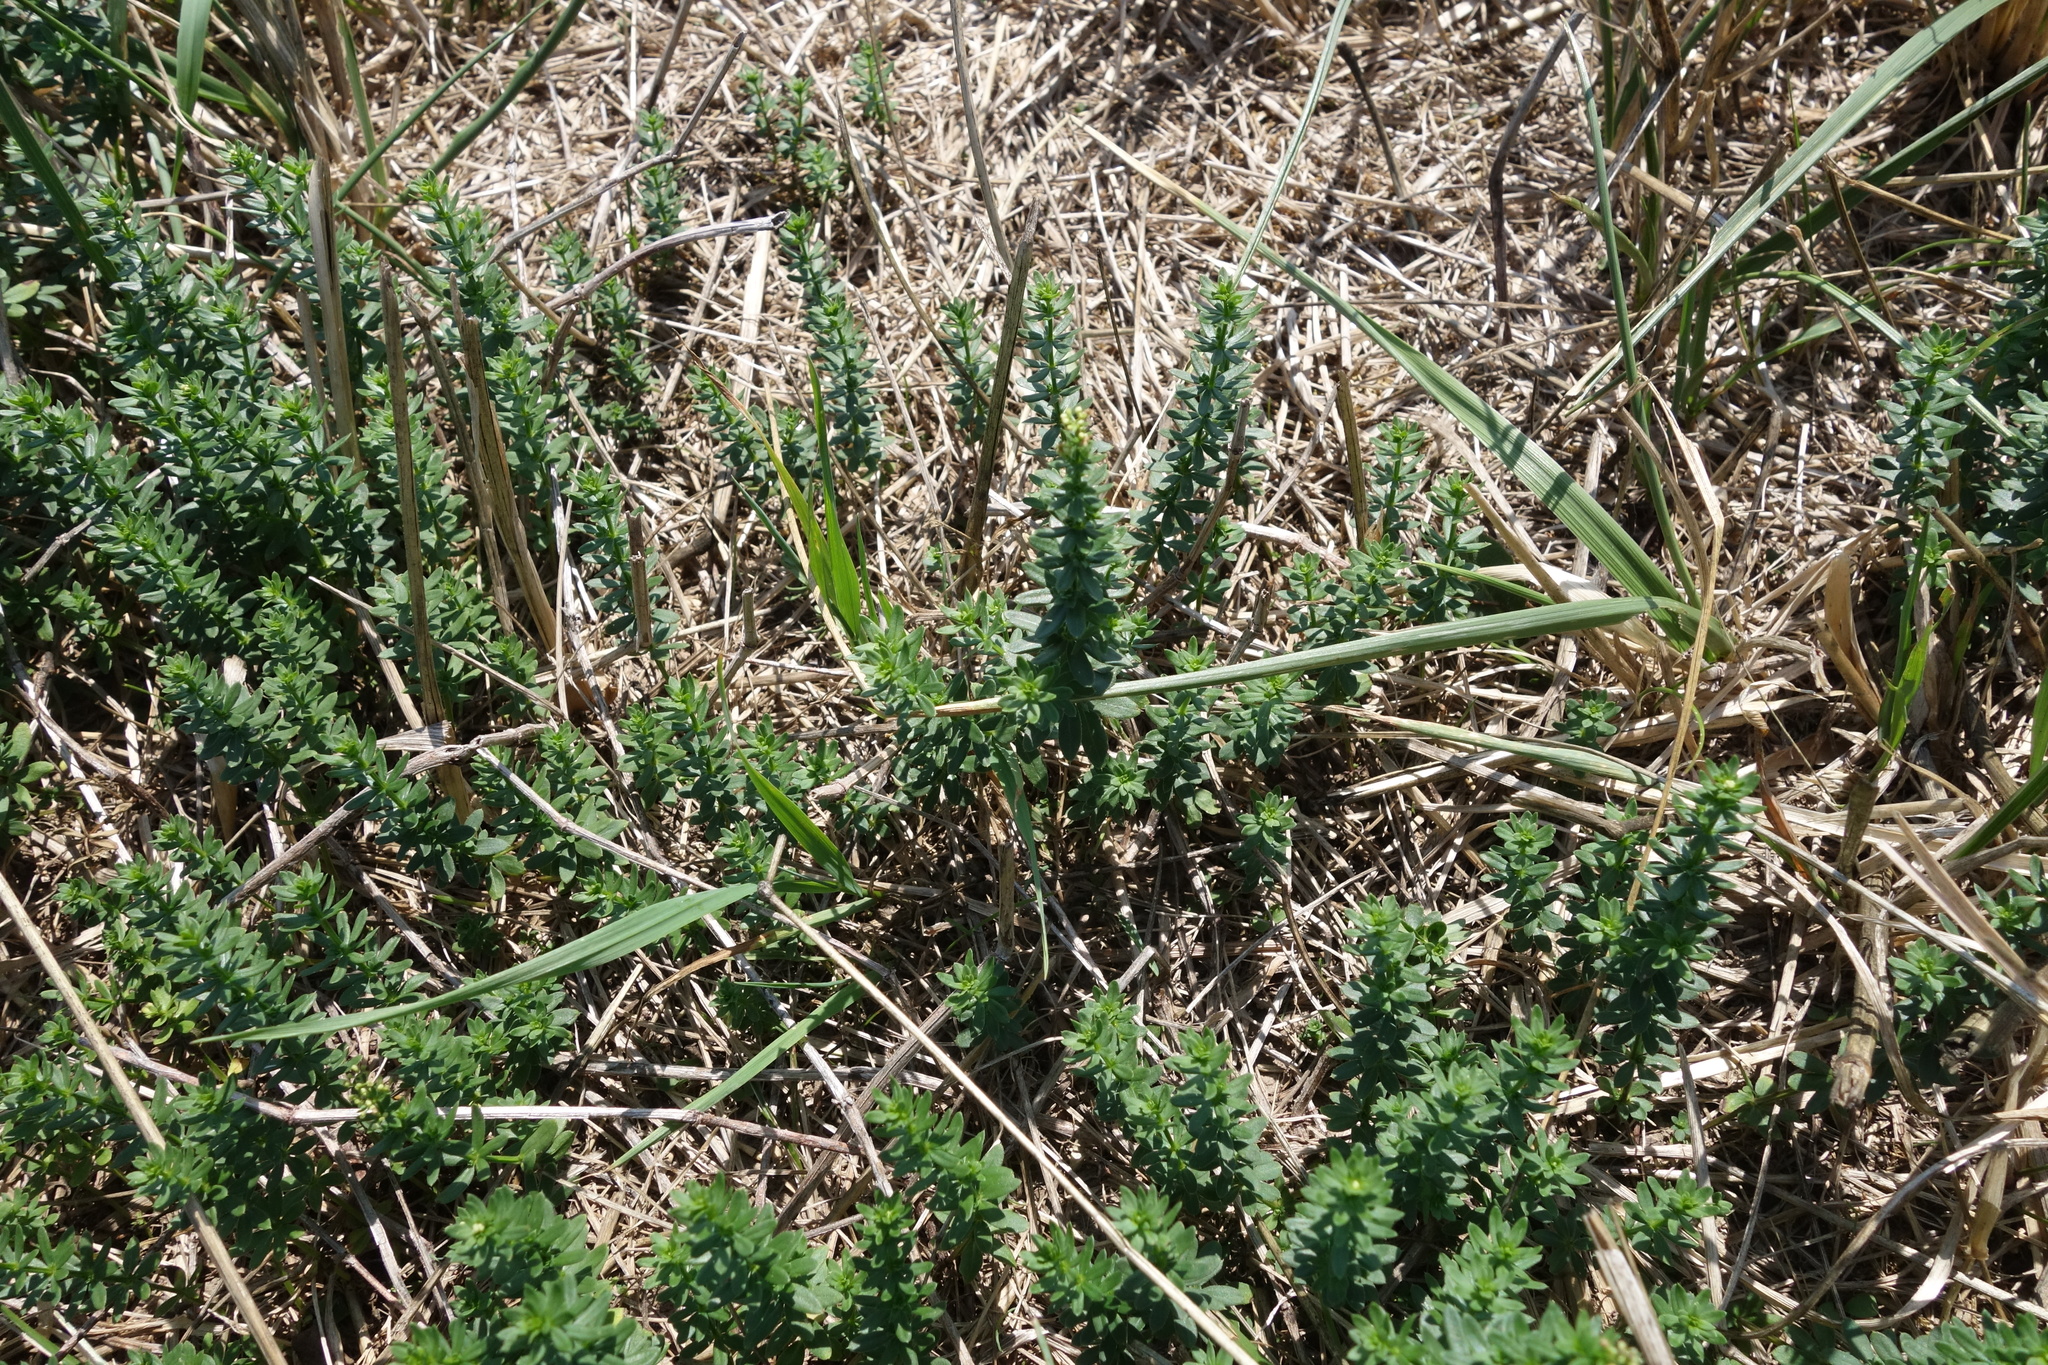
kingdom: Plantae
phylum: Tracheophyta
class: Magnoliopsida
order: Gentianales
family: Rubiaceae
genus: Galium
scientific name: Galium mollugo
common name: Hedge bedstraw
